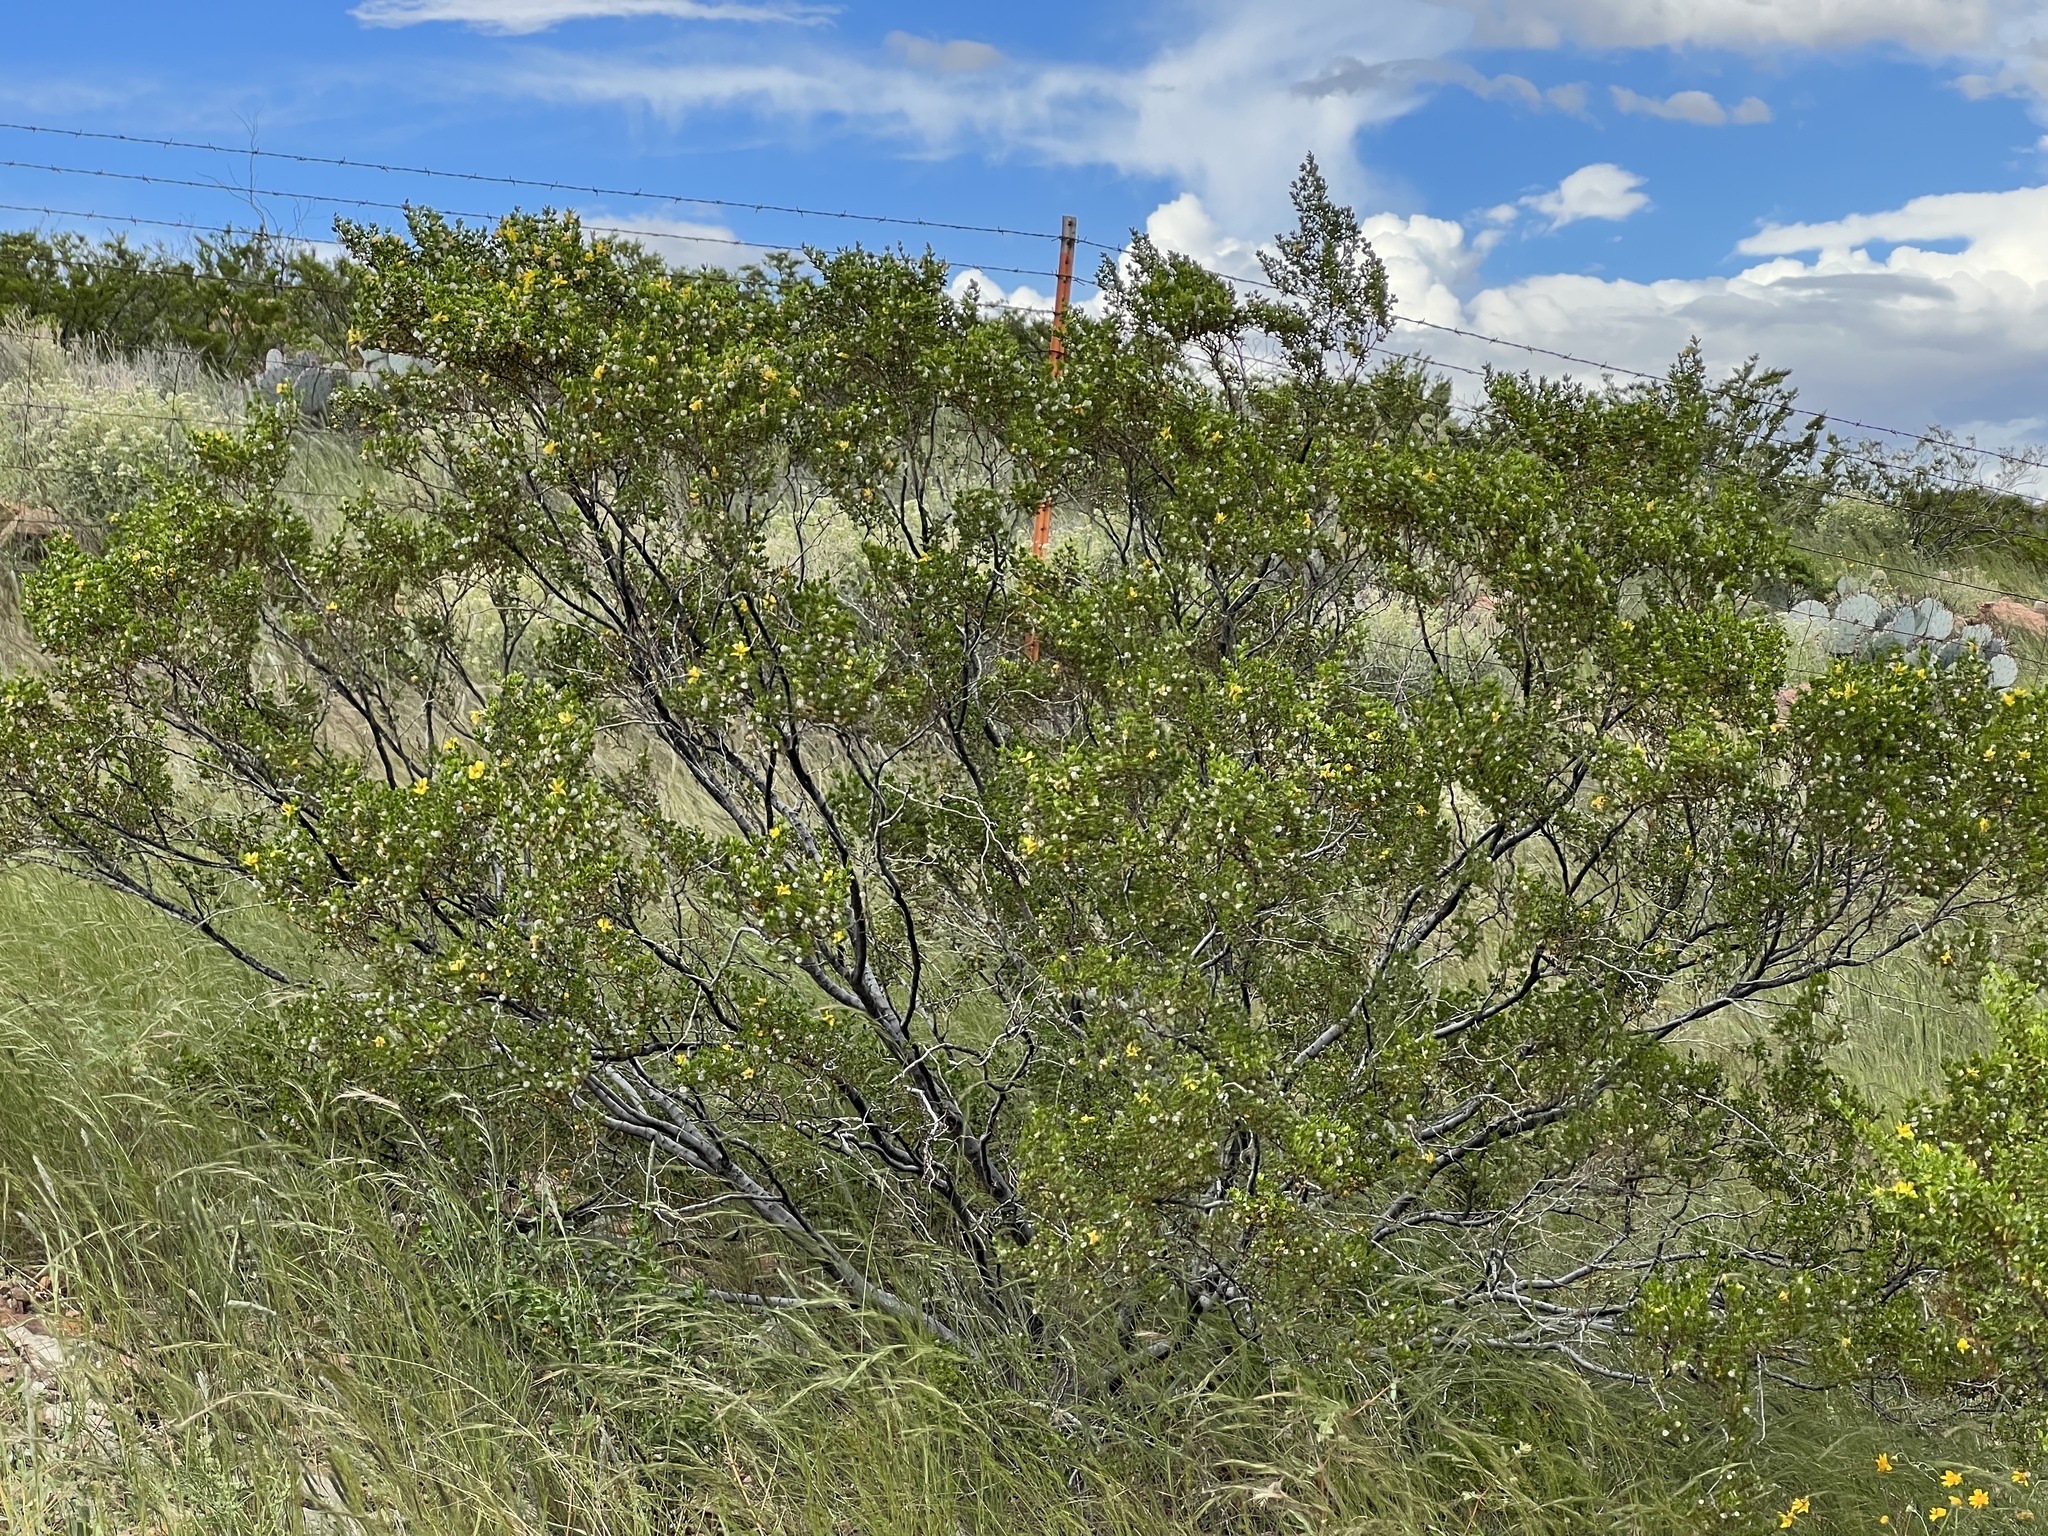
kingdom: Plantae
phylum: Tracheophyta
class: Magnoliopsida
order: Zygophyllales
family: Zygophyllaceae
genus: Larrea
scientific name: Larrea tridentata
